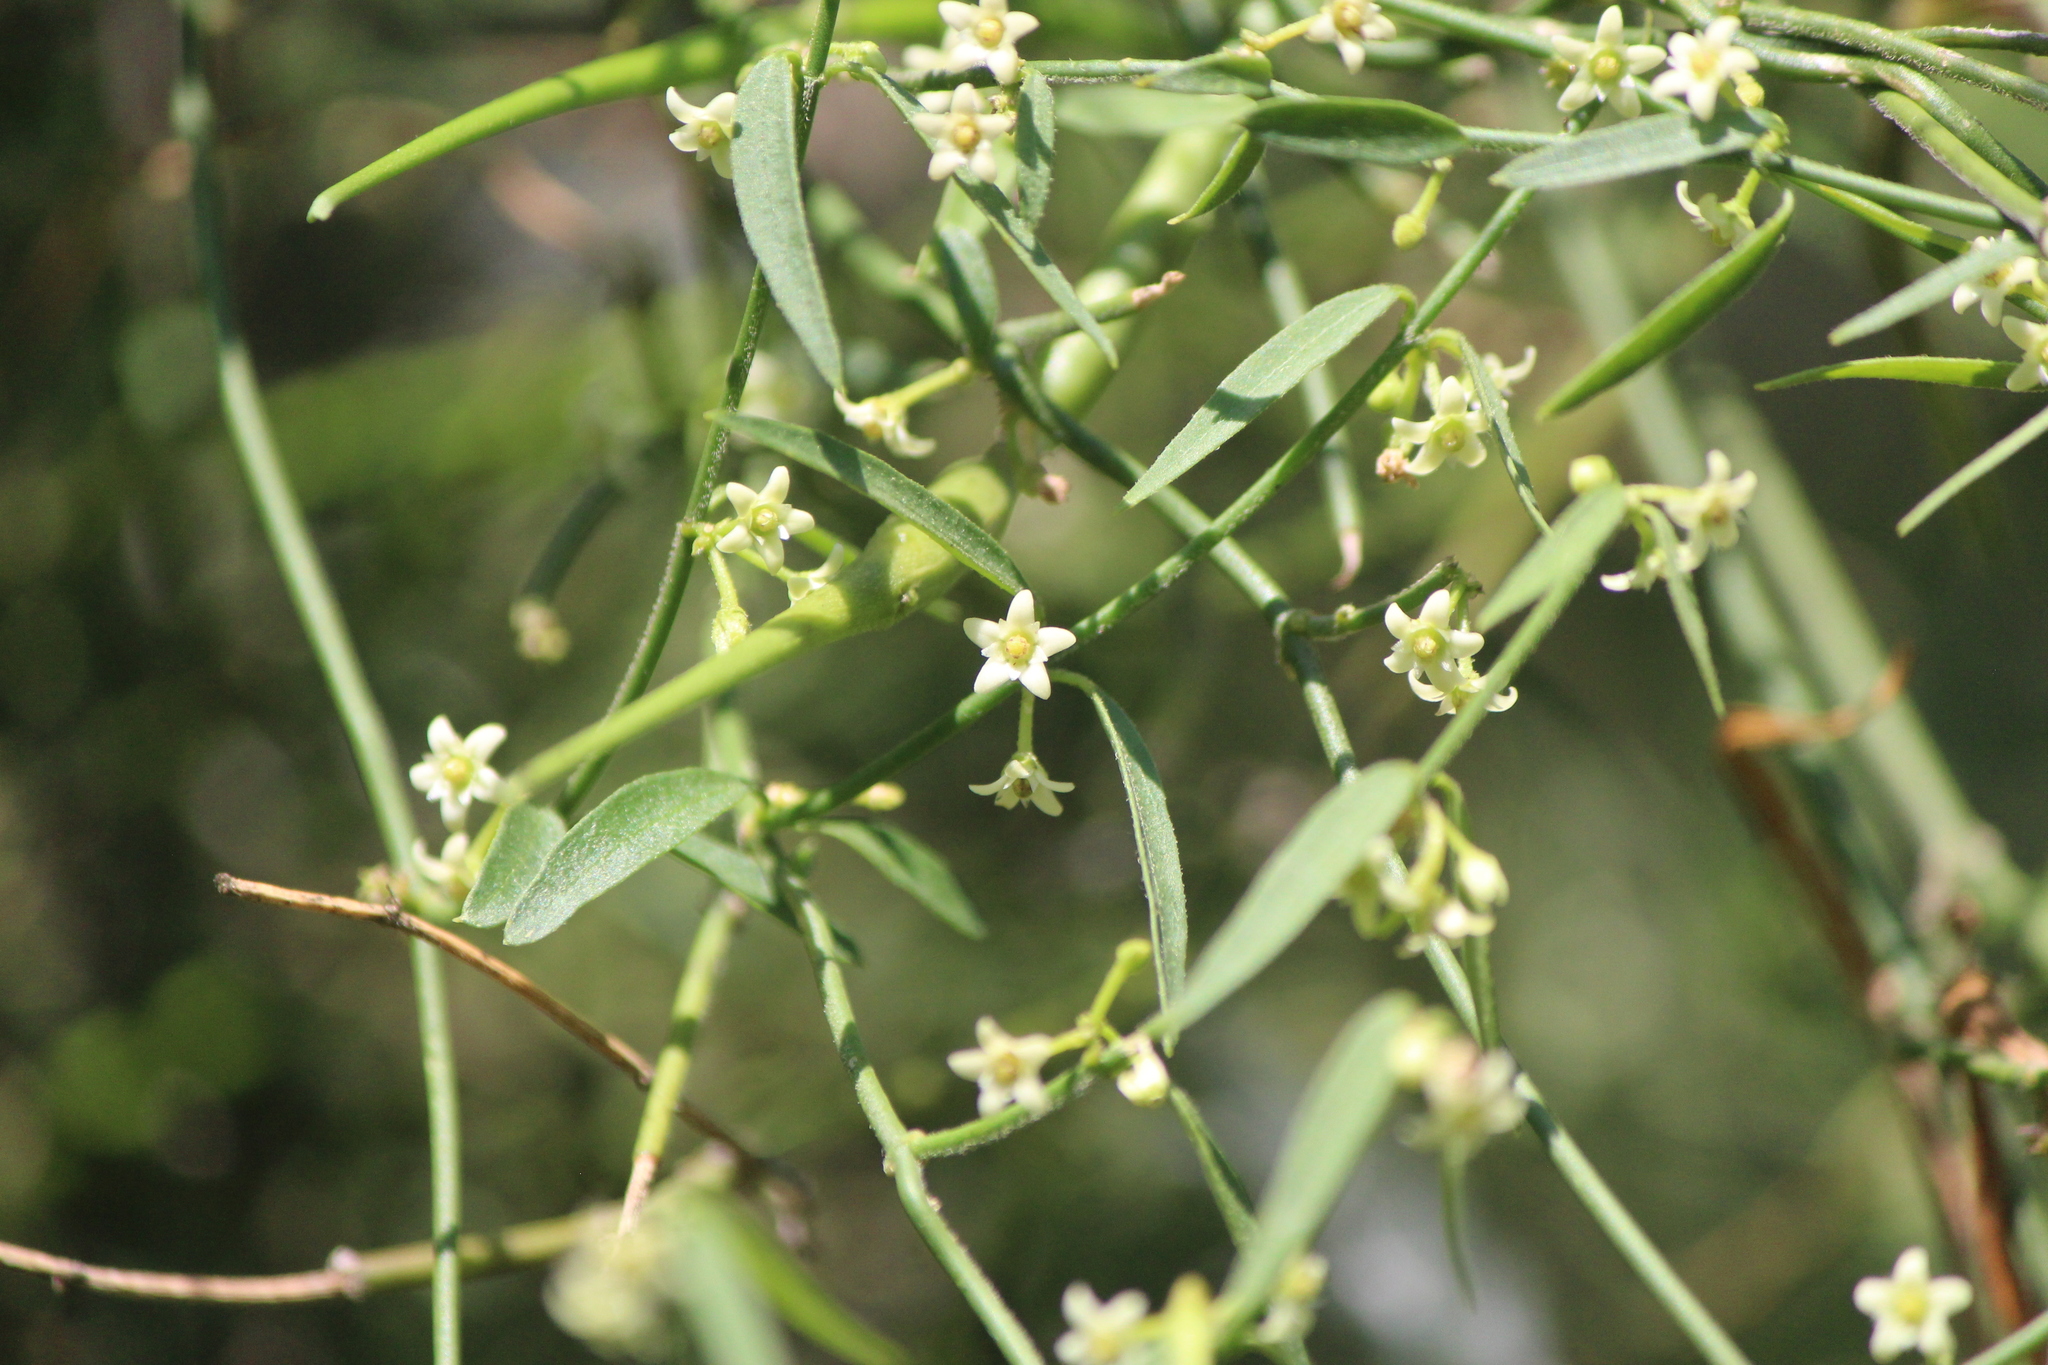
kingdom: Plantae
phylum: Tracheophyta
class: Magnoliopsida
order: Gentianales
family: Apocynaceae
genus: Orthosia
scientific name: Orthosia angustifolia
